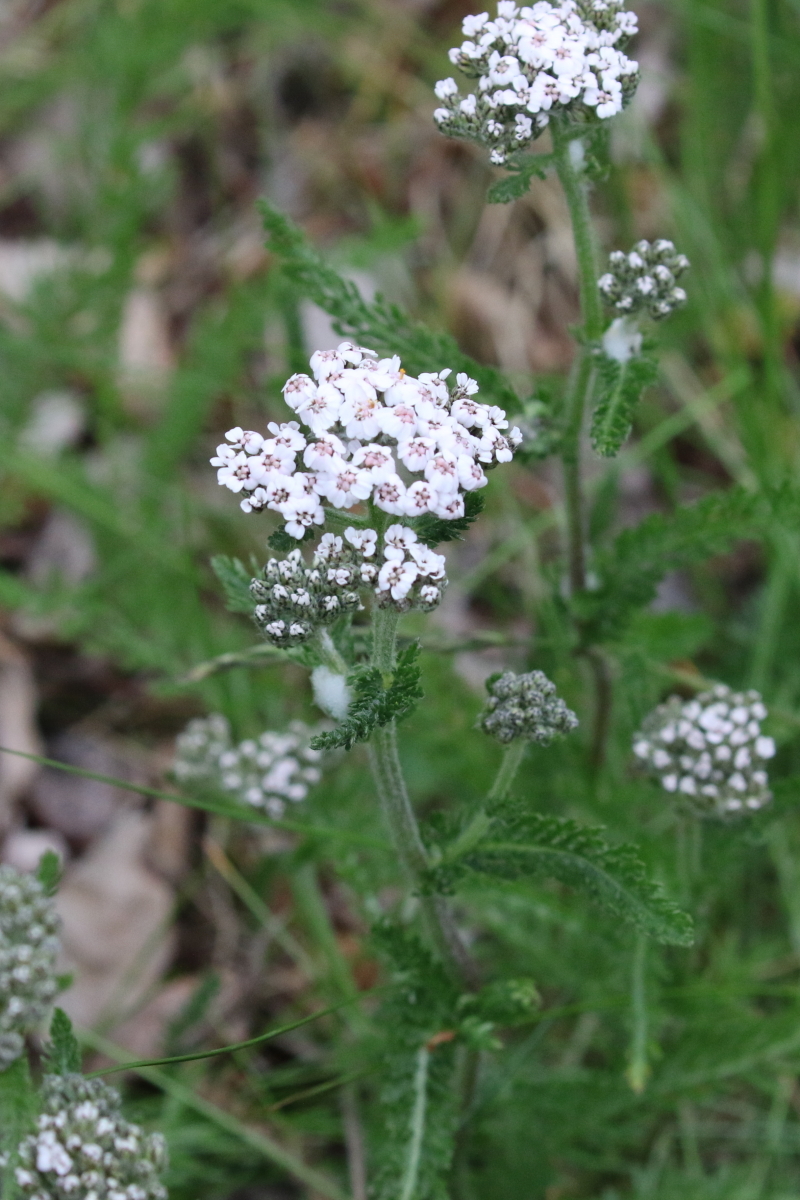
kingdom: Plantae
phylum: Tracheophyta
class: Magnoliopsida
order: Asterales
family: Asteraceae
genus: Achillea
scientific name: Achillea millefolium
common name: Yarrow
